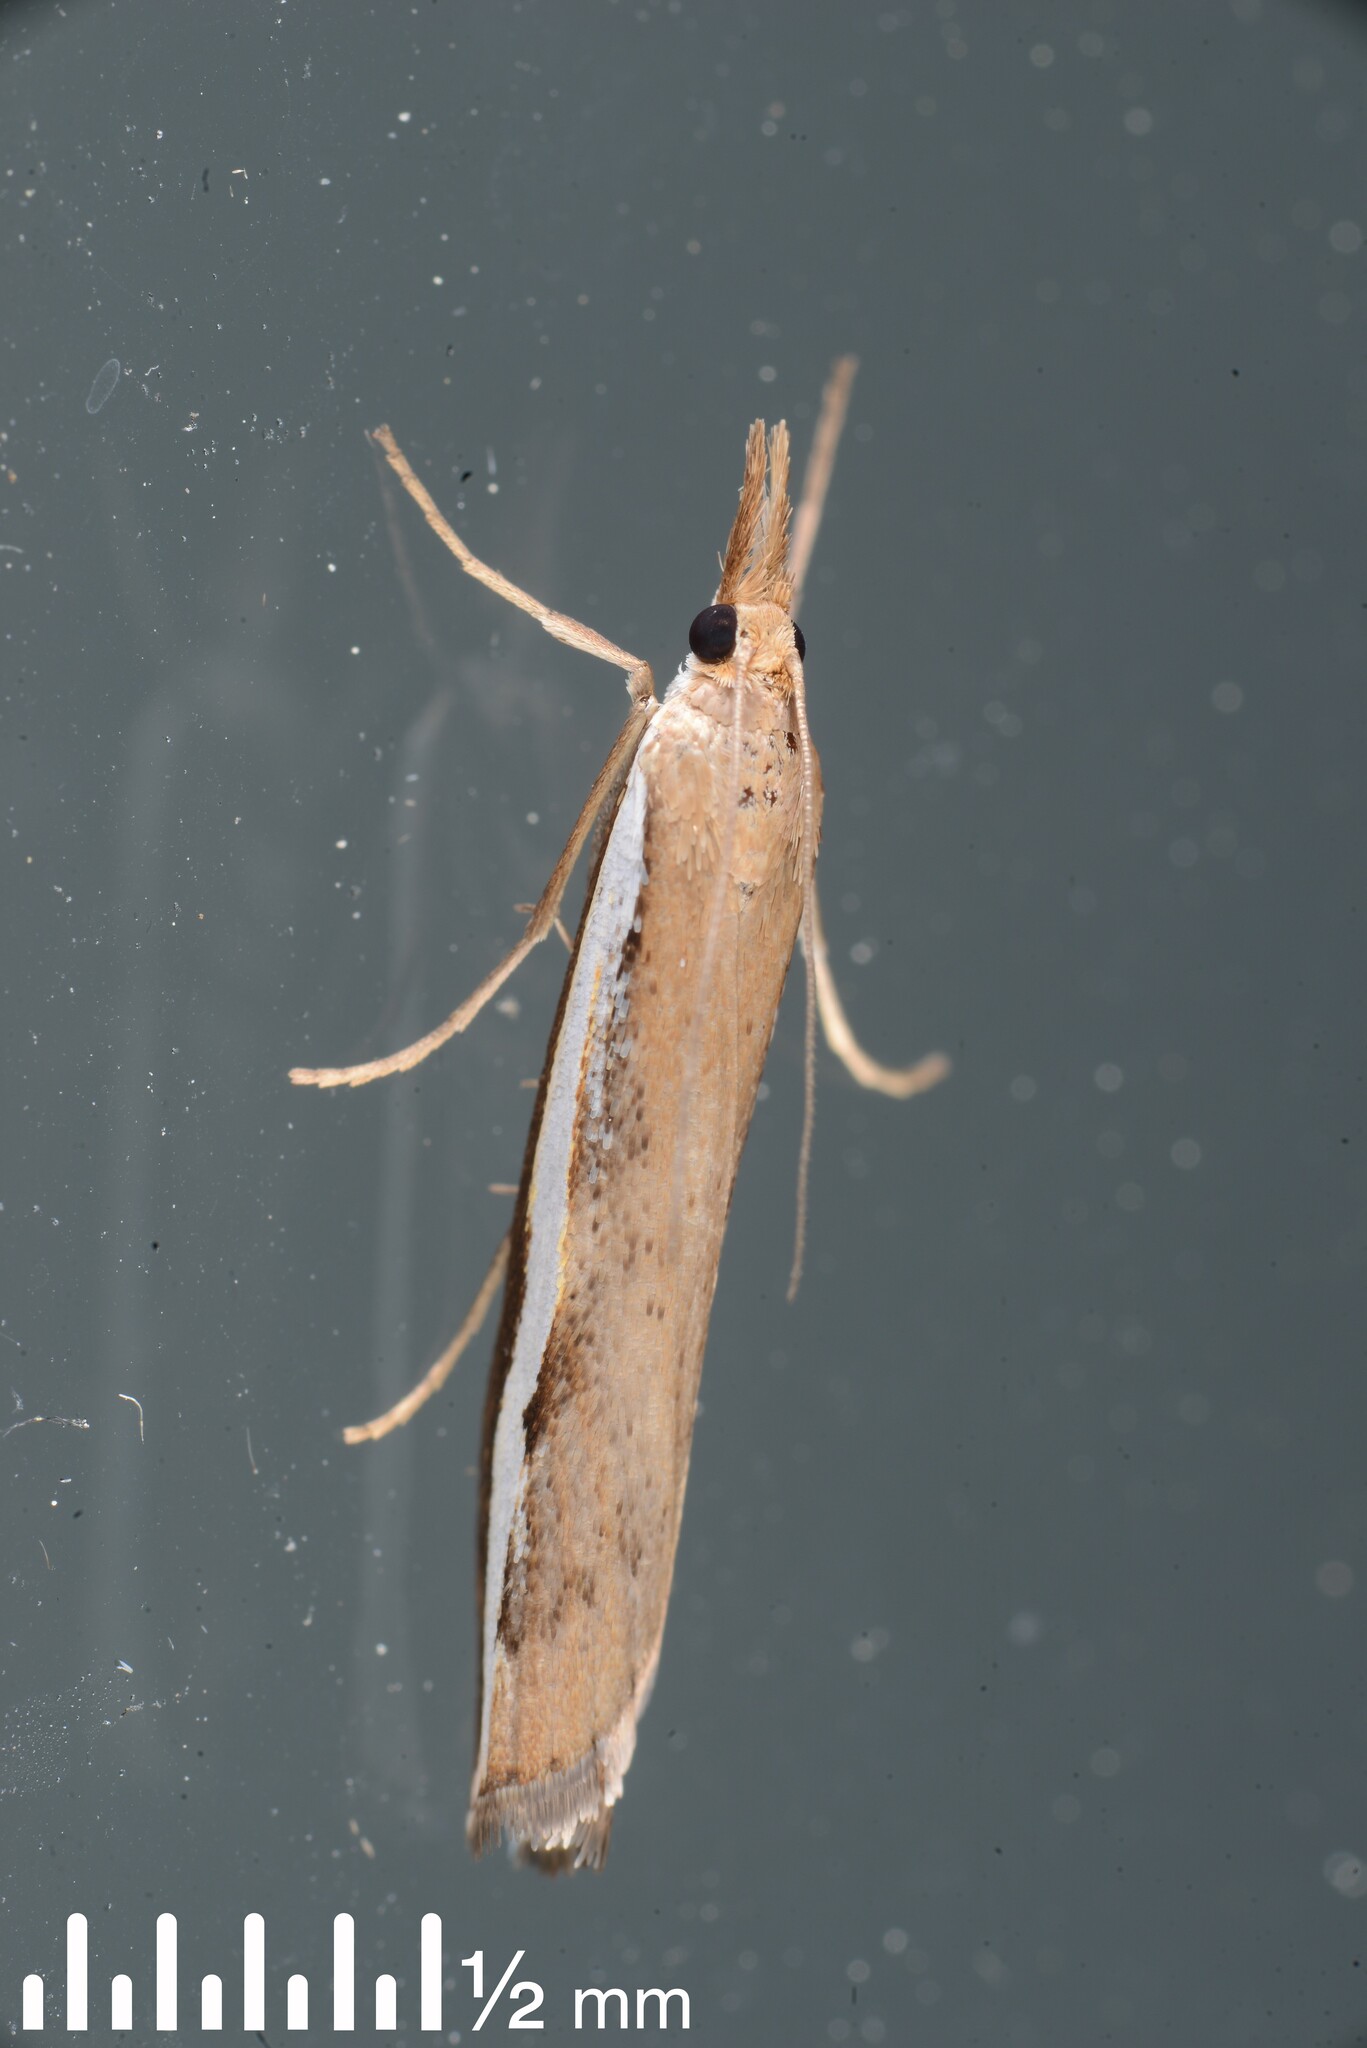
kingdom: Animalia
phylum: Arthropoda
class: Insecta
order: Lepidoptera
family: Crambidae
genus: Orocrambus
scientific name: Orocrambus flexuosellus
